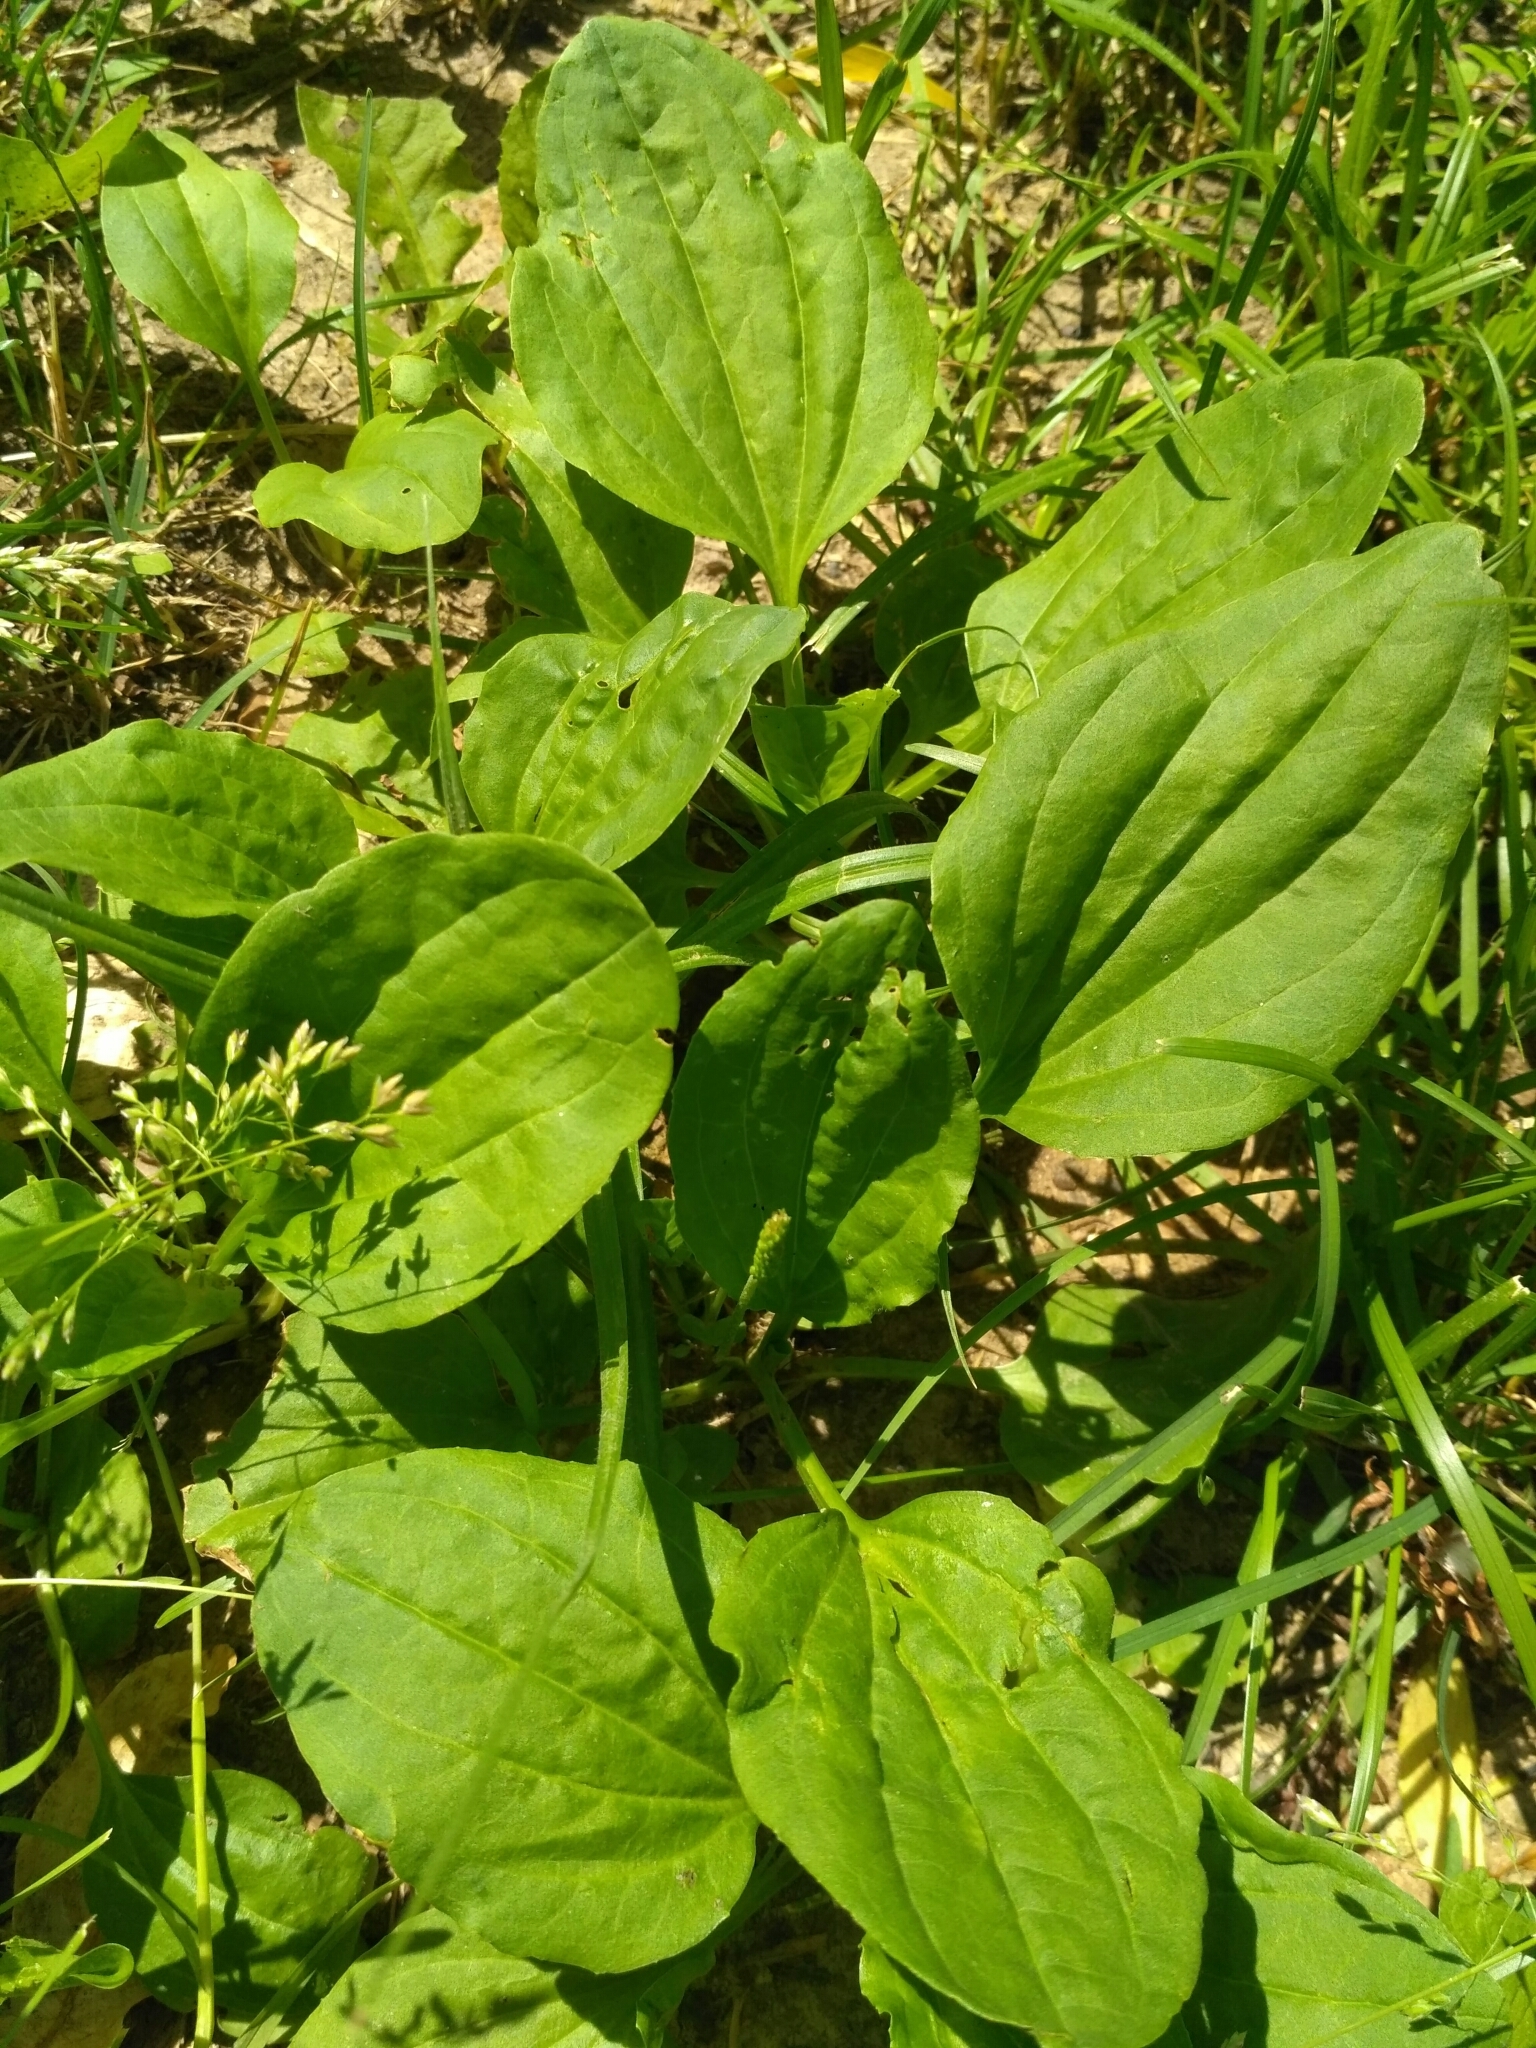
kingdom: Plantae
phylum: Tracheophyta
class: Magnoliopsida
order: Lamiales
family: Plantaginaceae
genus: Plantago
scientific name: Plantago major
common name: Common plantain
